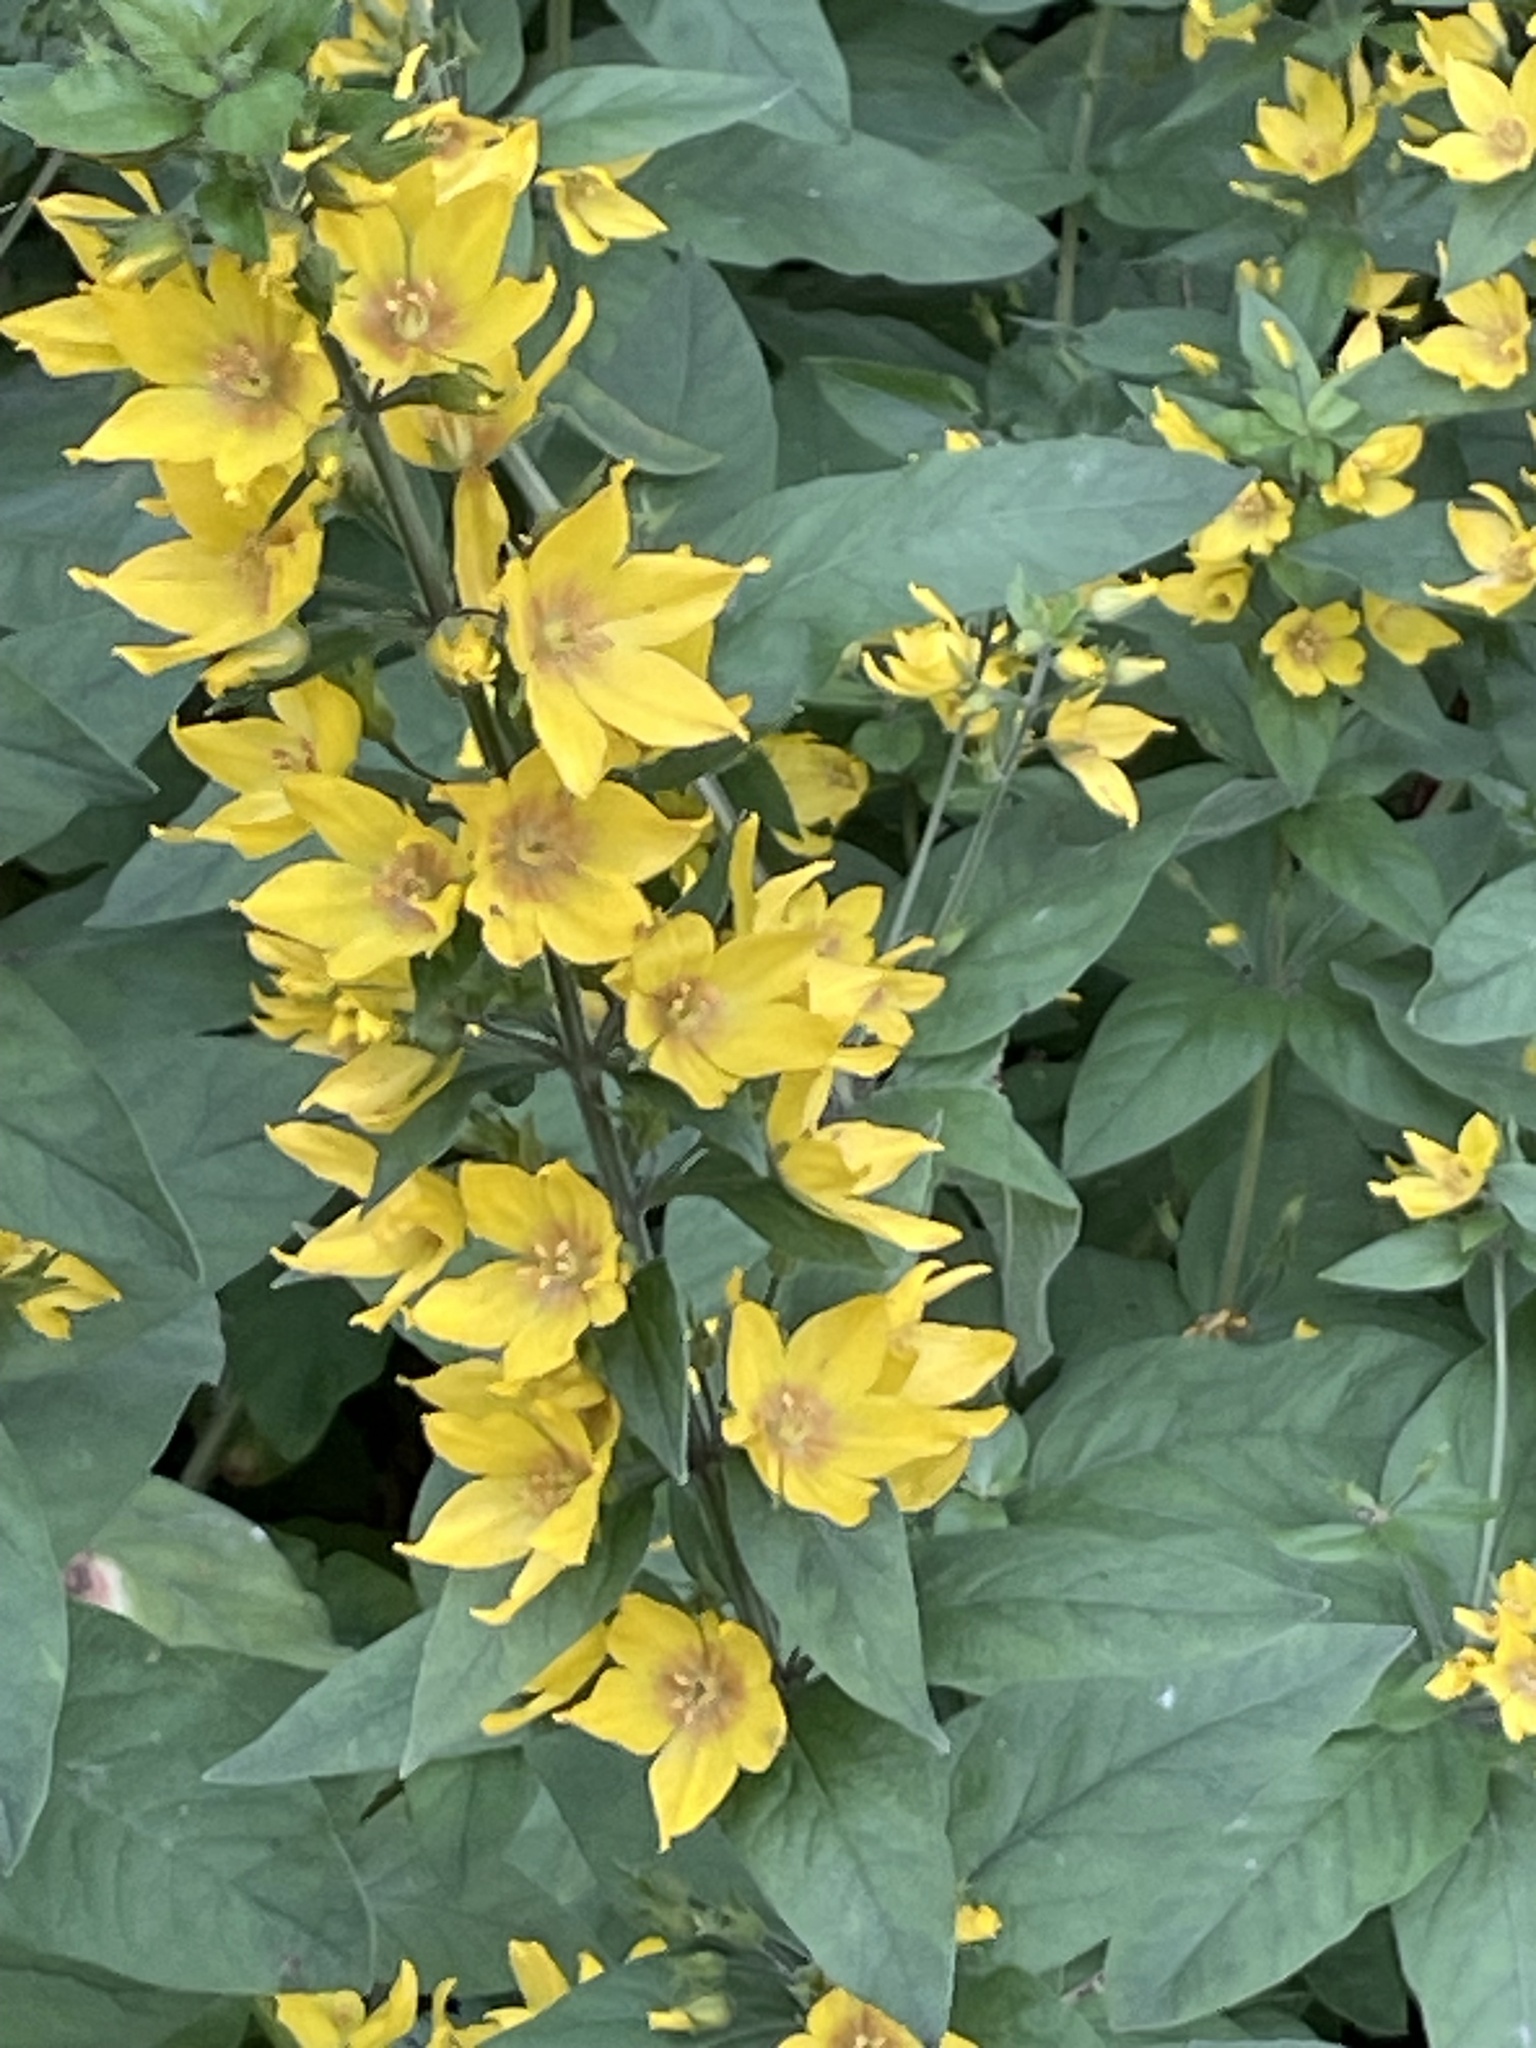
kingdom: Plantae
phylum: Tracheophyta
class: Magnoliopsida
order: Ericales
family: Primulaceae
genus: Lysimachia
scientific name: Lysimachia punctata
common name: Dotted loosestrife
